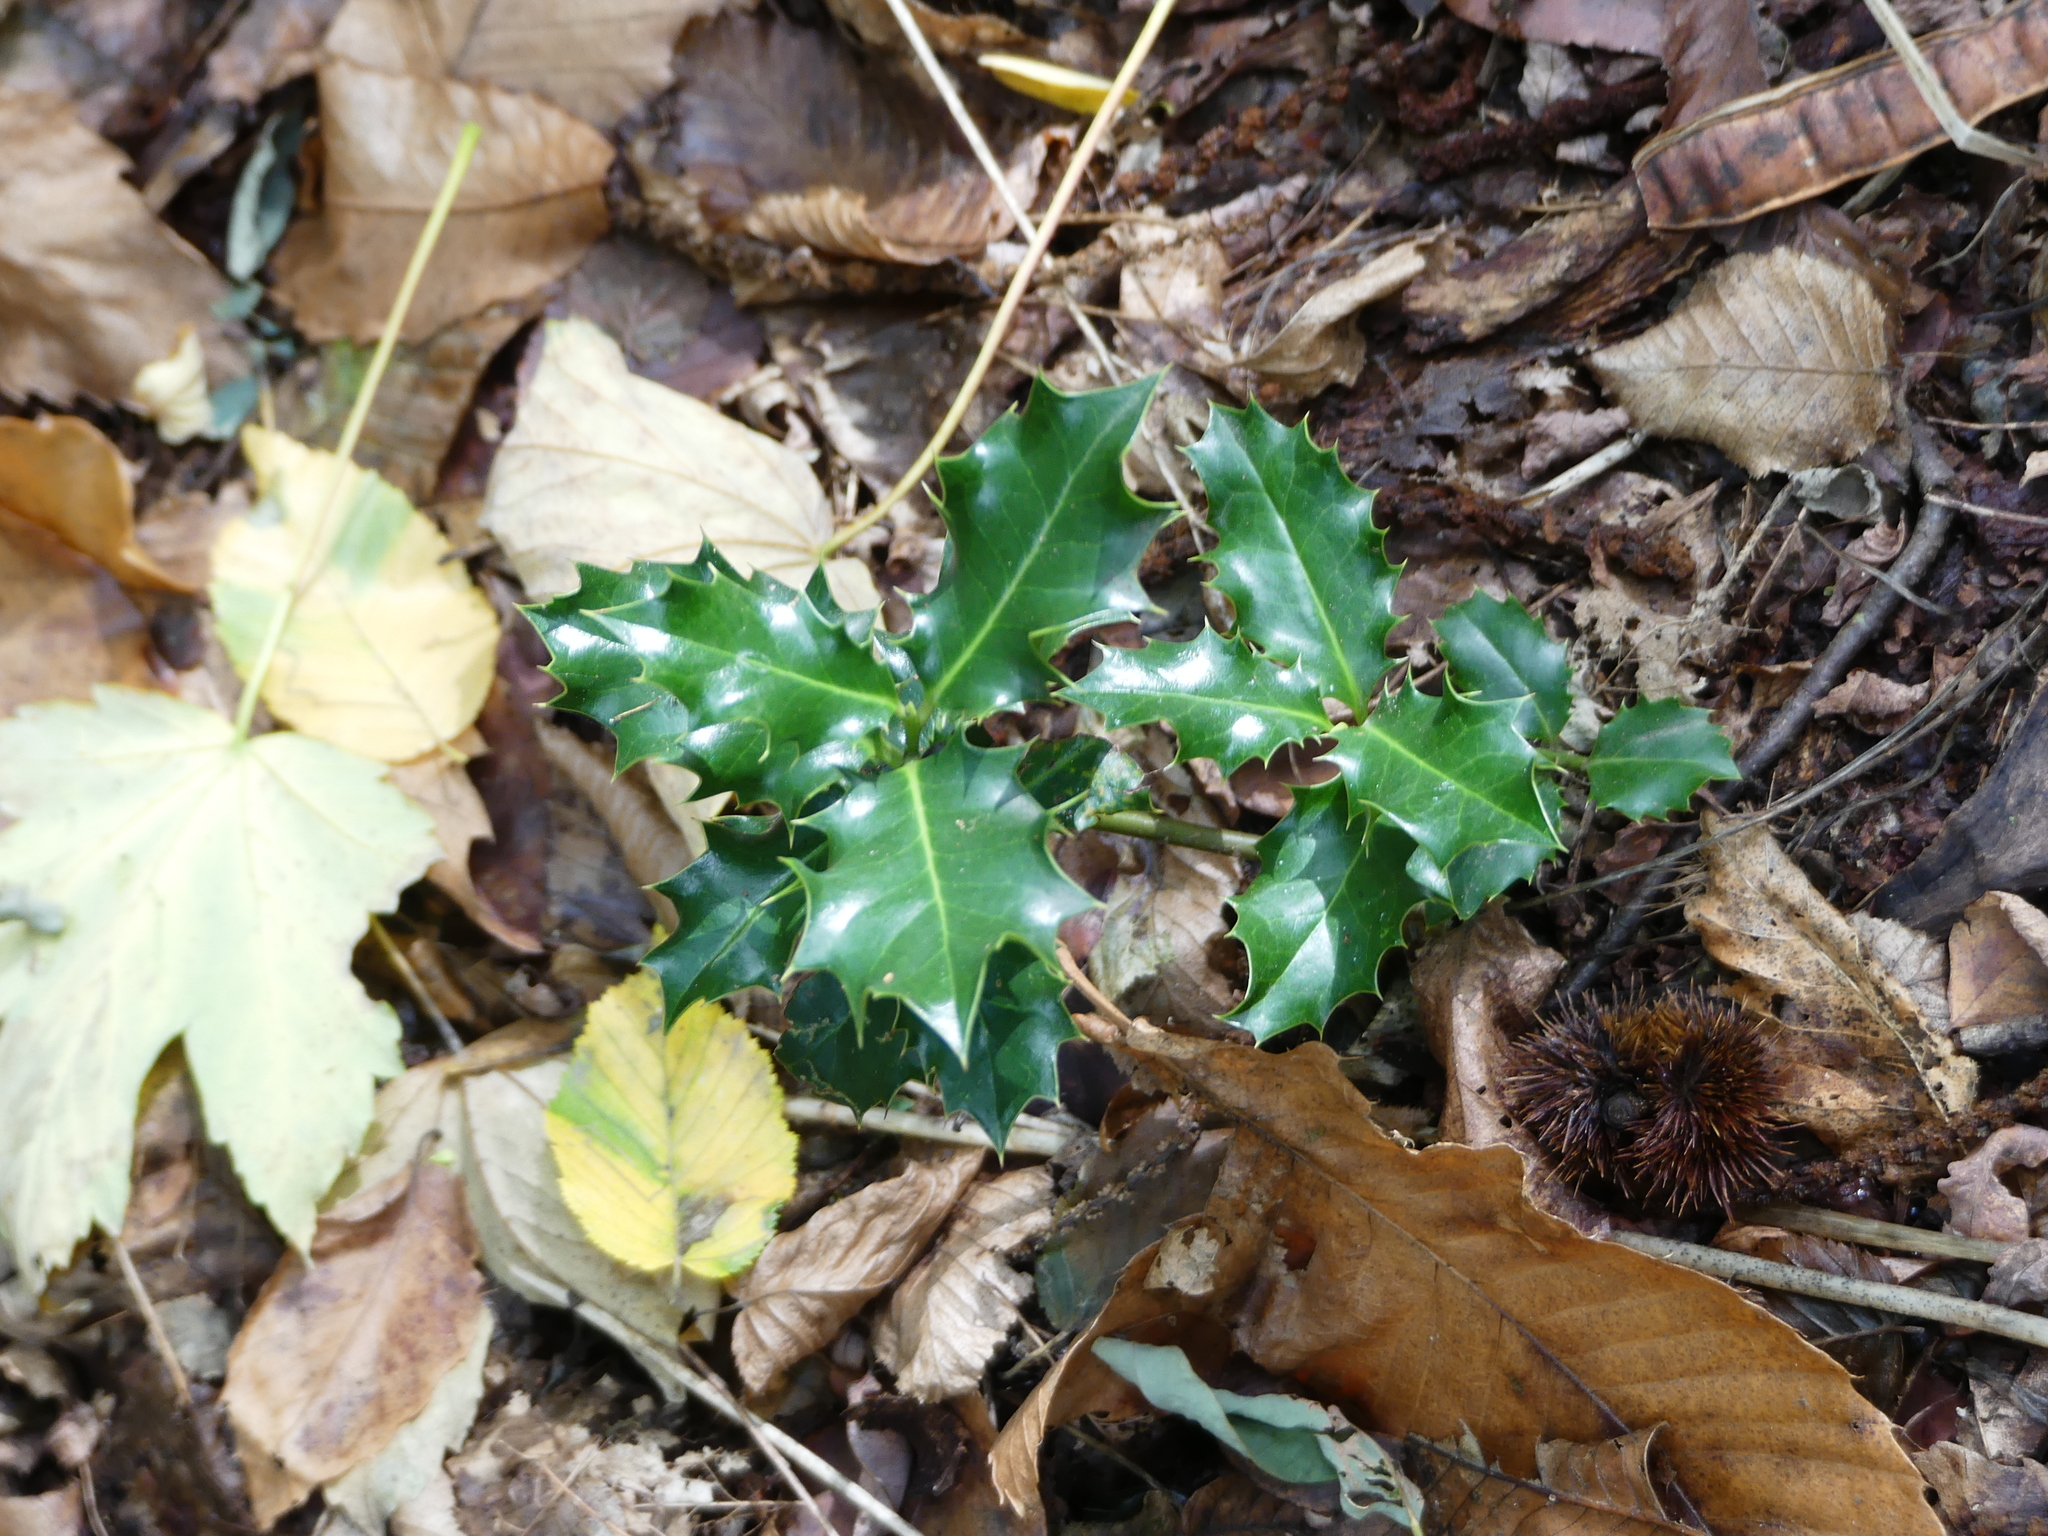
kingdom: Plantae
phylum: Tracheophyta
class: Magnoliopsida
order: Aquifoliales
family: Aquifoliaceae
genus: Ilex
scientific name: Ilex aquifolium
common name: English holly
